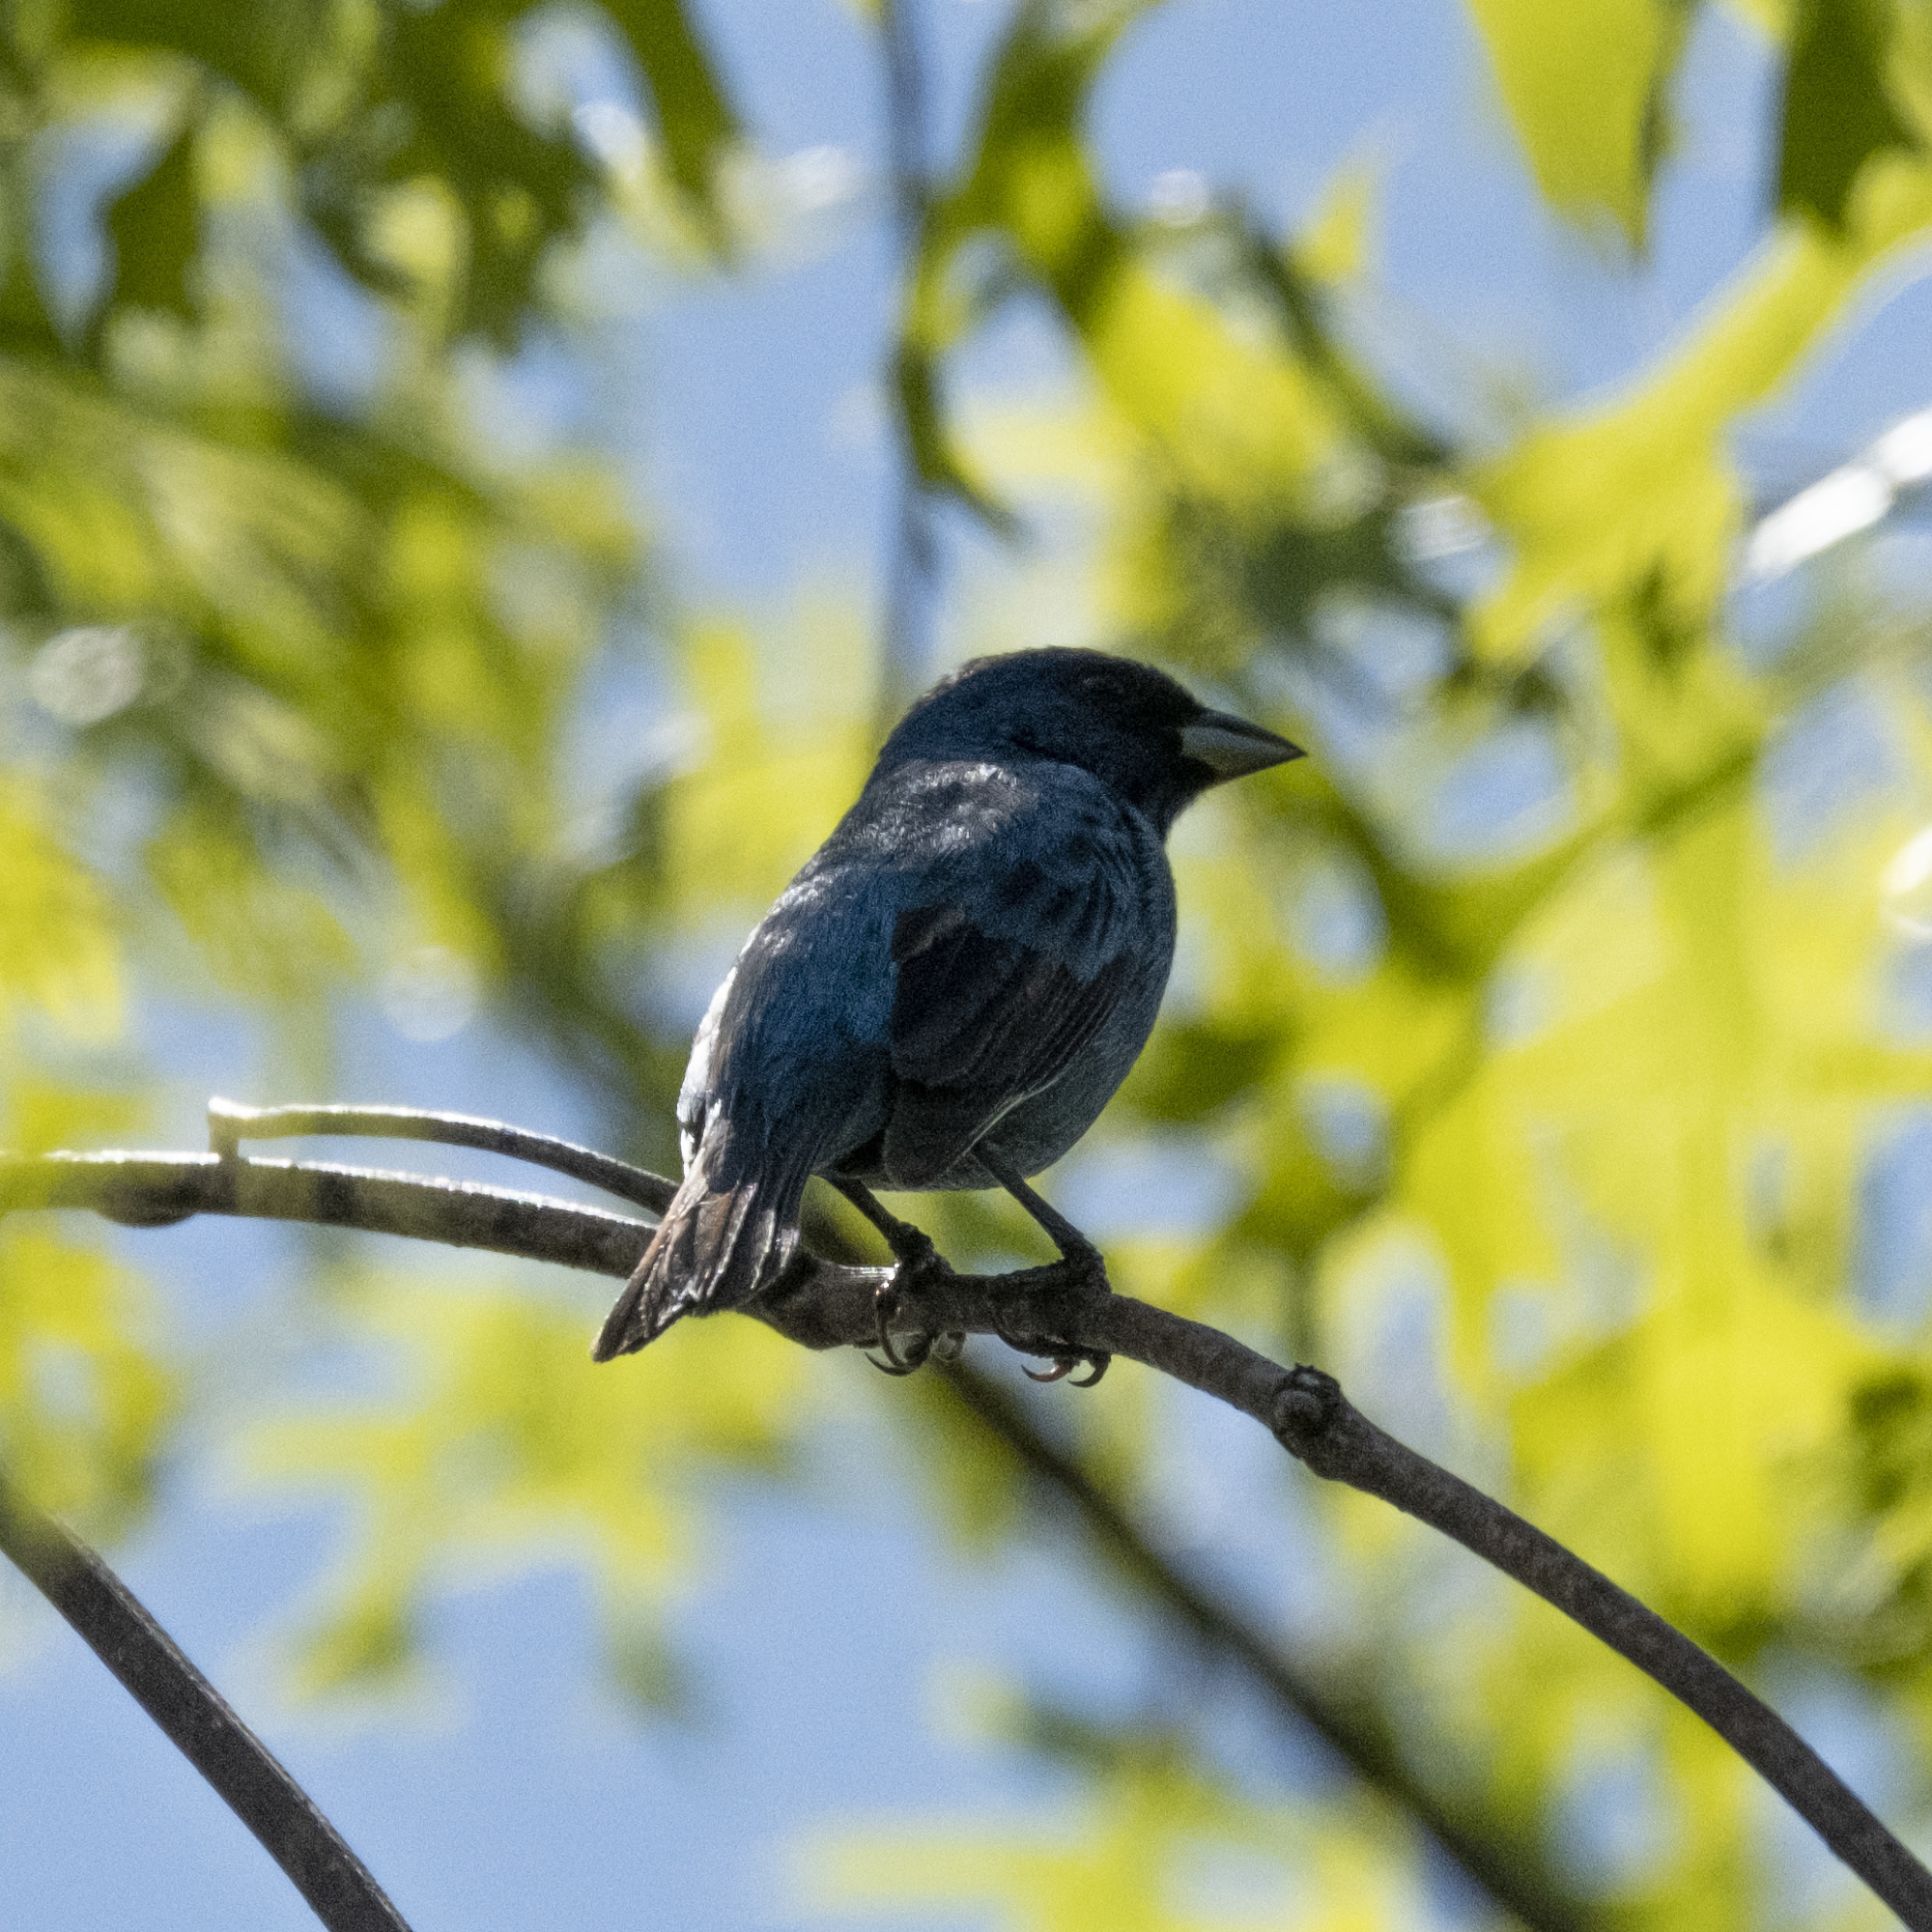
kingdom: Animalia
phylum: Chordata
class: Aves
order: Passeriformes
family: Cardinalidae
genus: Passerina
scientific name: Passerina cyanea
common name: Indigo bunting
